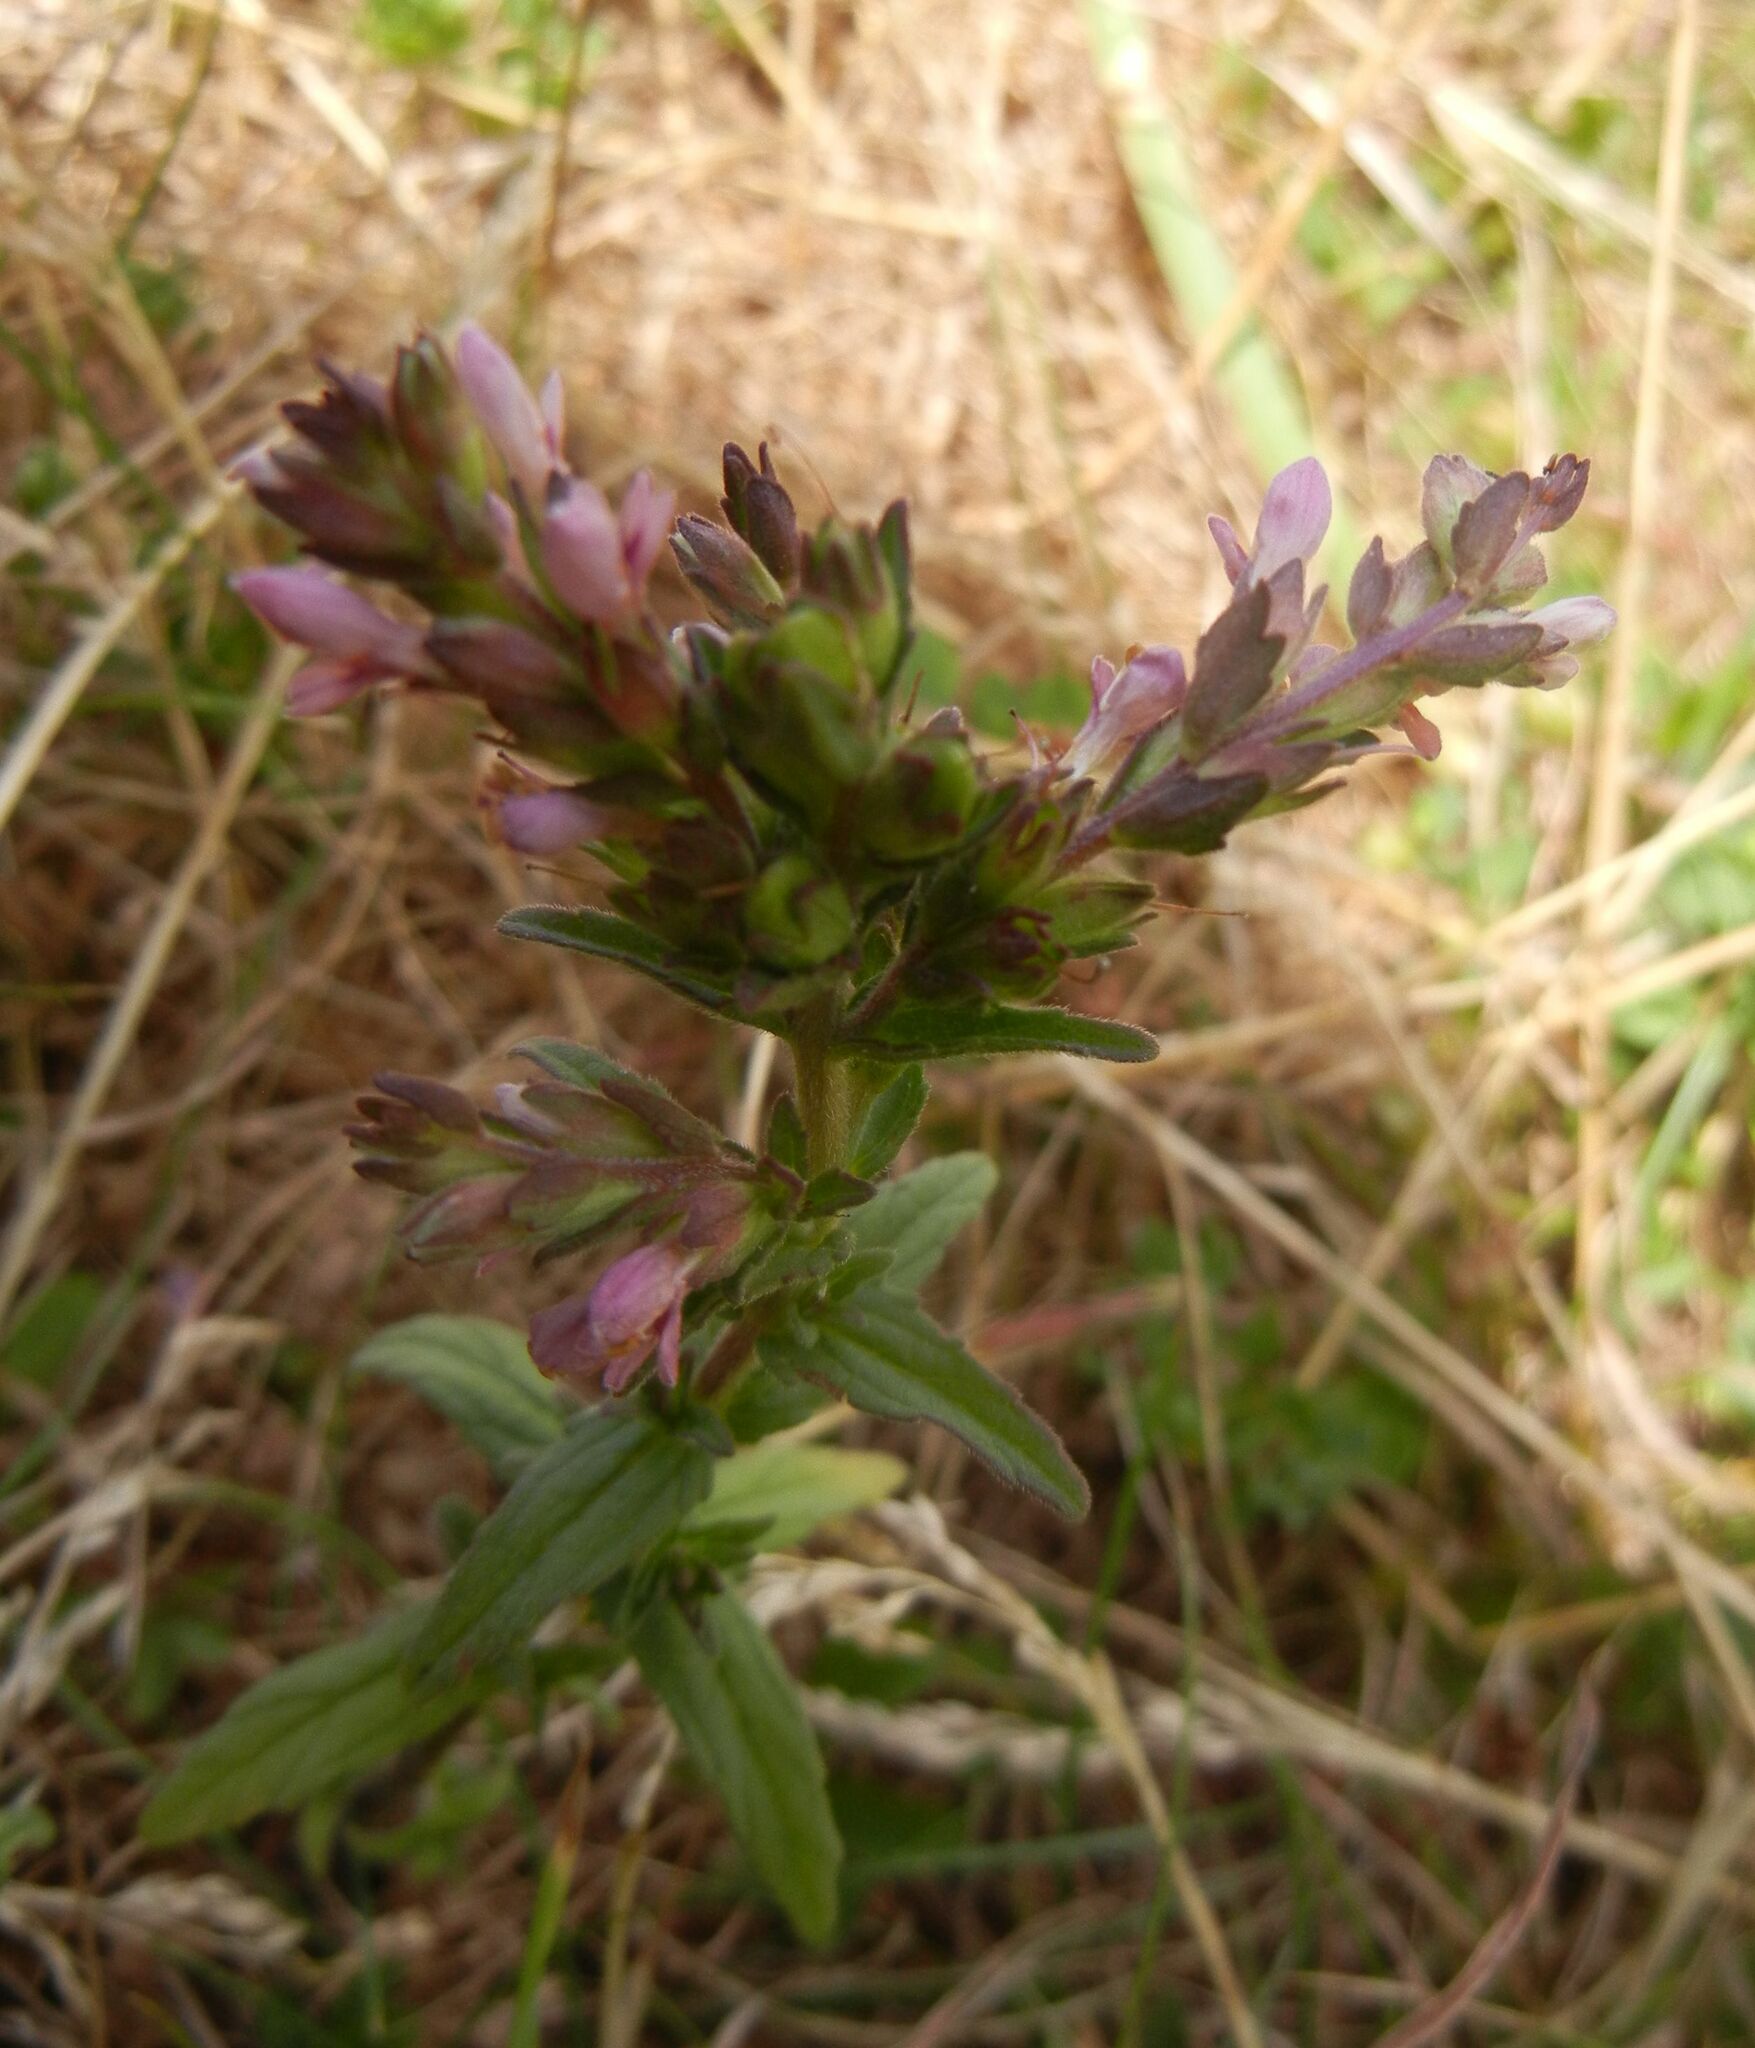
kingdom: Plantae
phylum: Tracheophyta
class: Magnoliopsida
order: Lamiales
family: Orobanchaceae
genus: Odontites
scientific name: Odontites vernus
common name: Red bartsia
